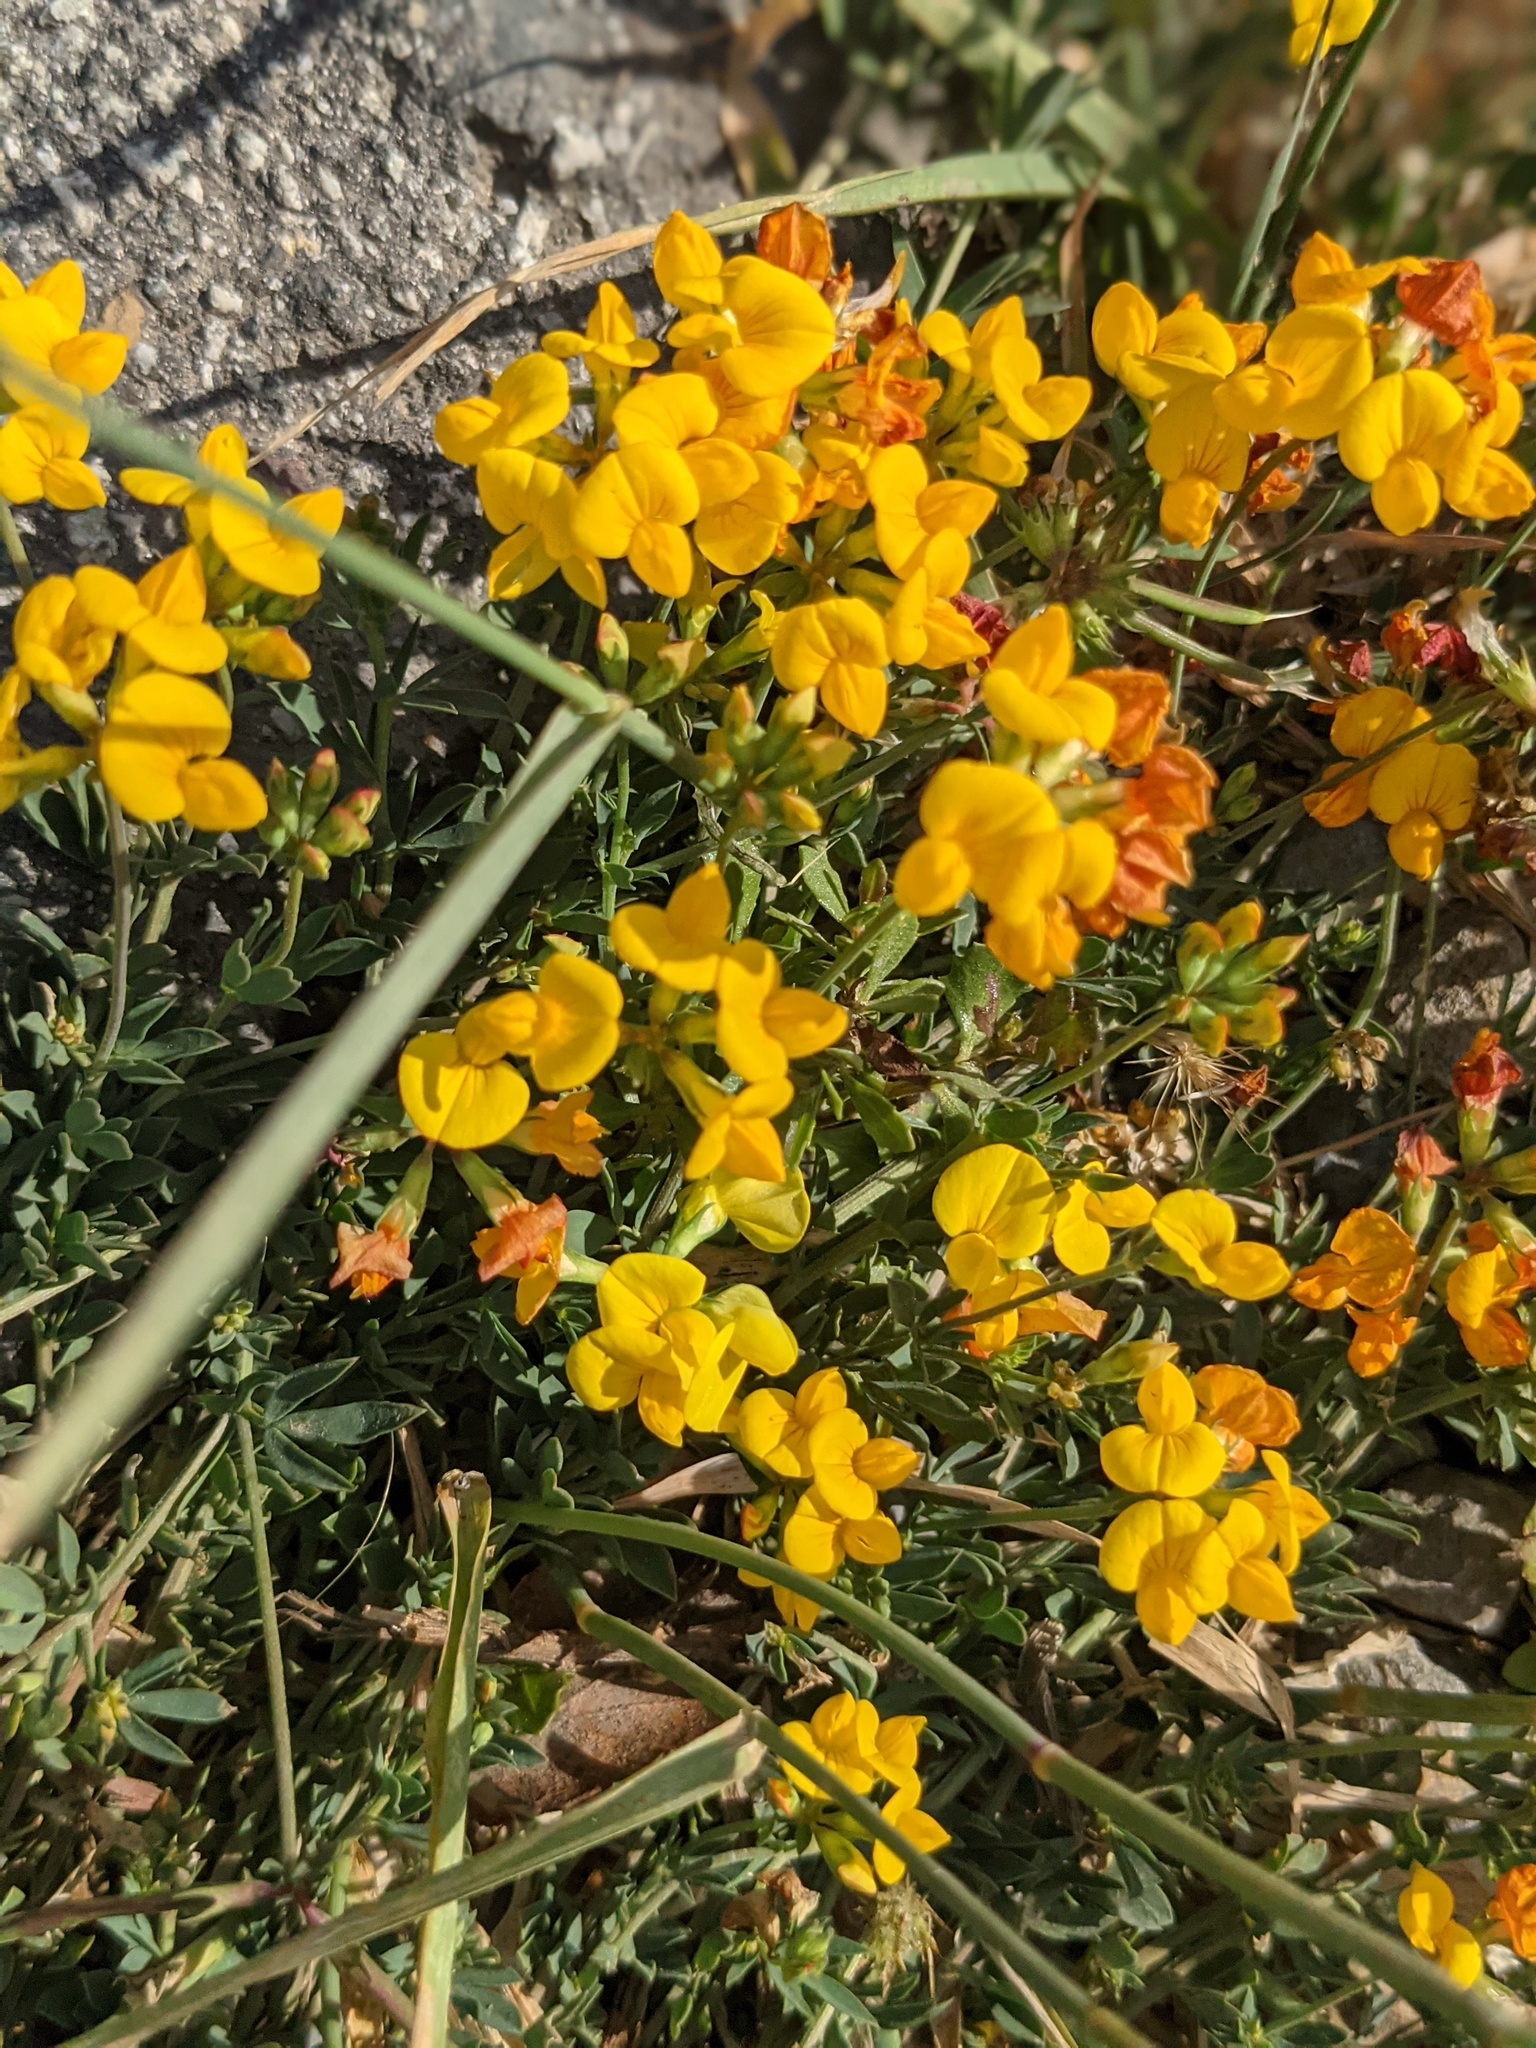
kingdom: Plantae
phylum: Tracheophyta
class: Magnoliopsida
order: Fabales
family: Fabaceae
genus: Lotus
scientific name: Lotus corniculatus
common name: Common bird's-foot-trefoil
